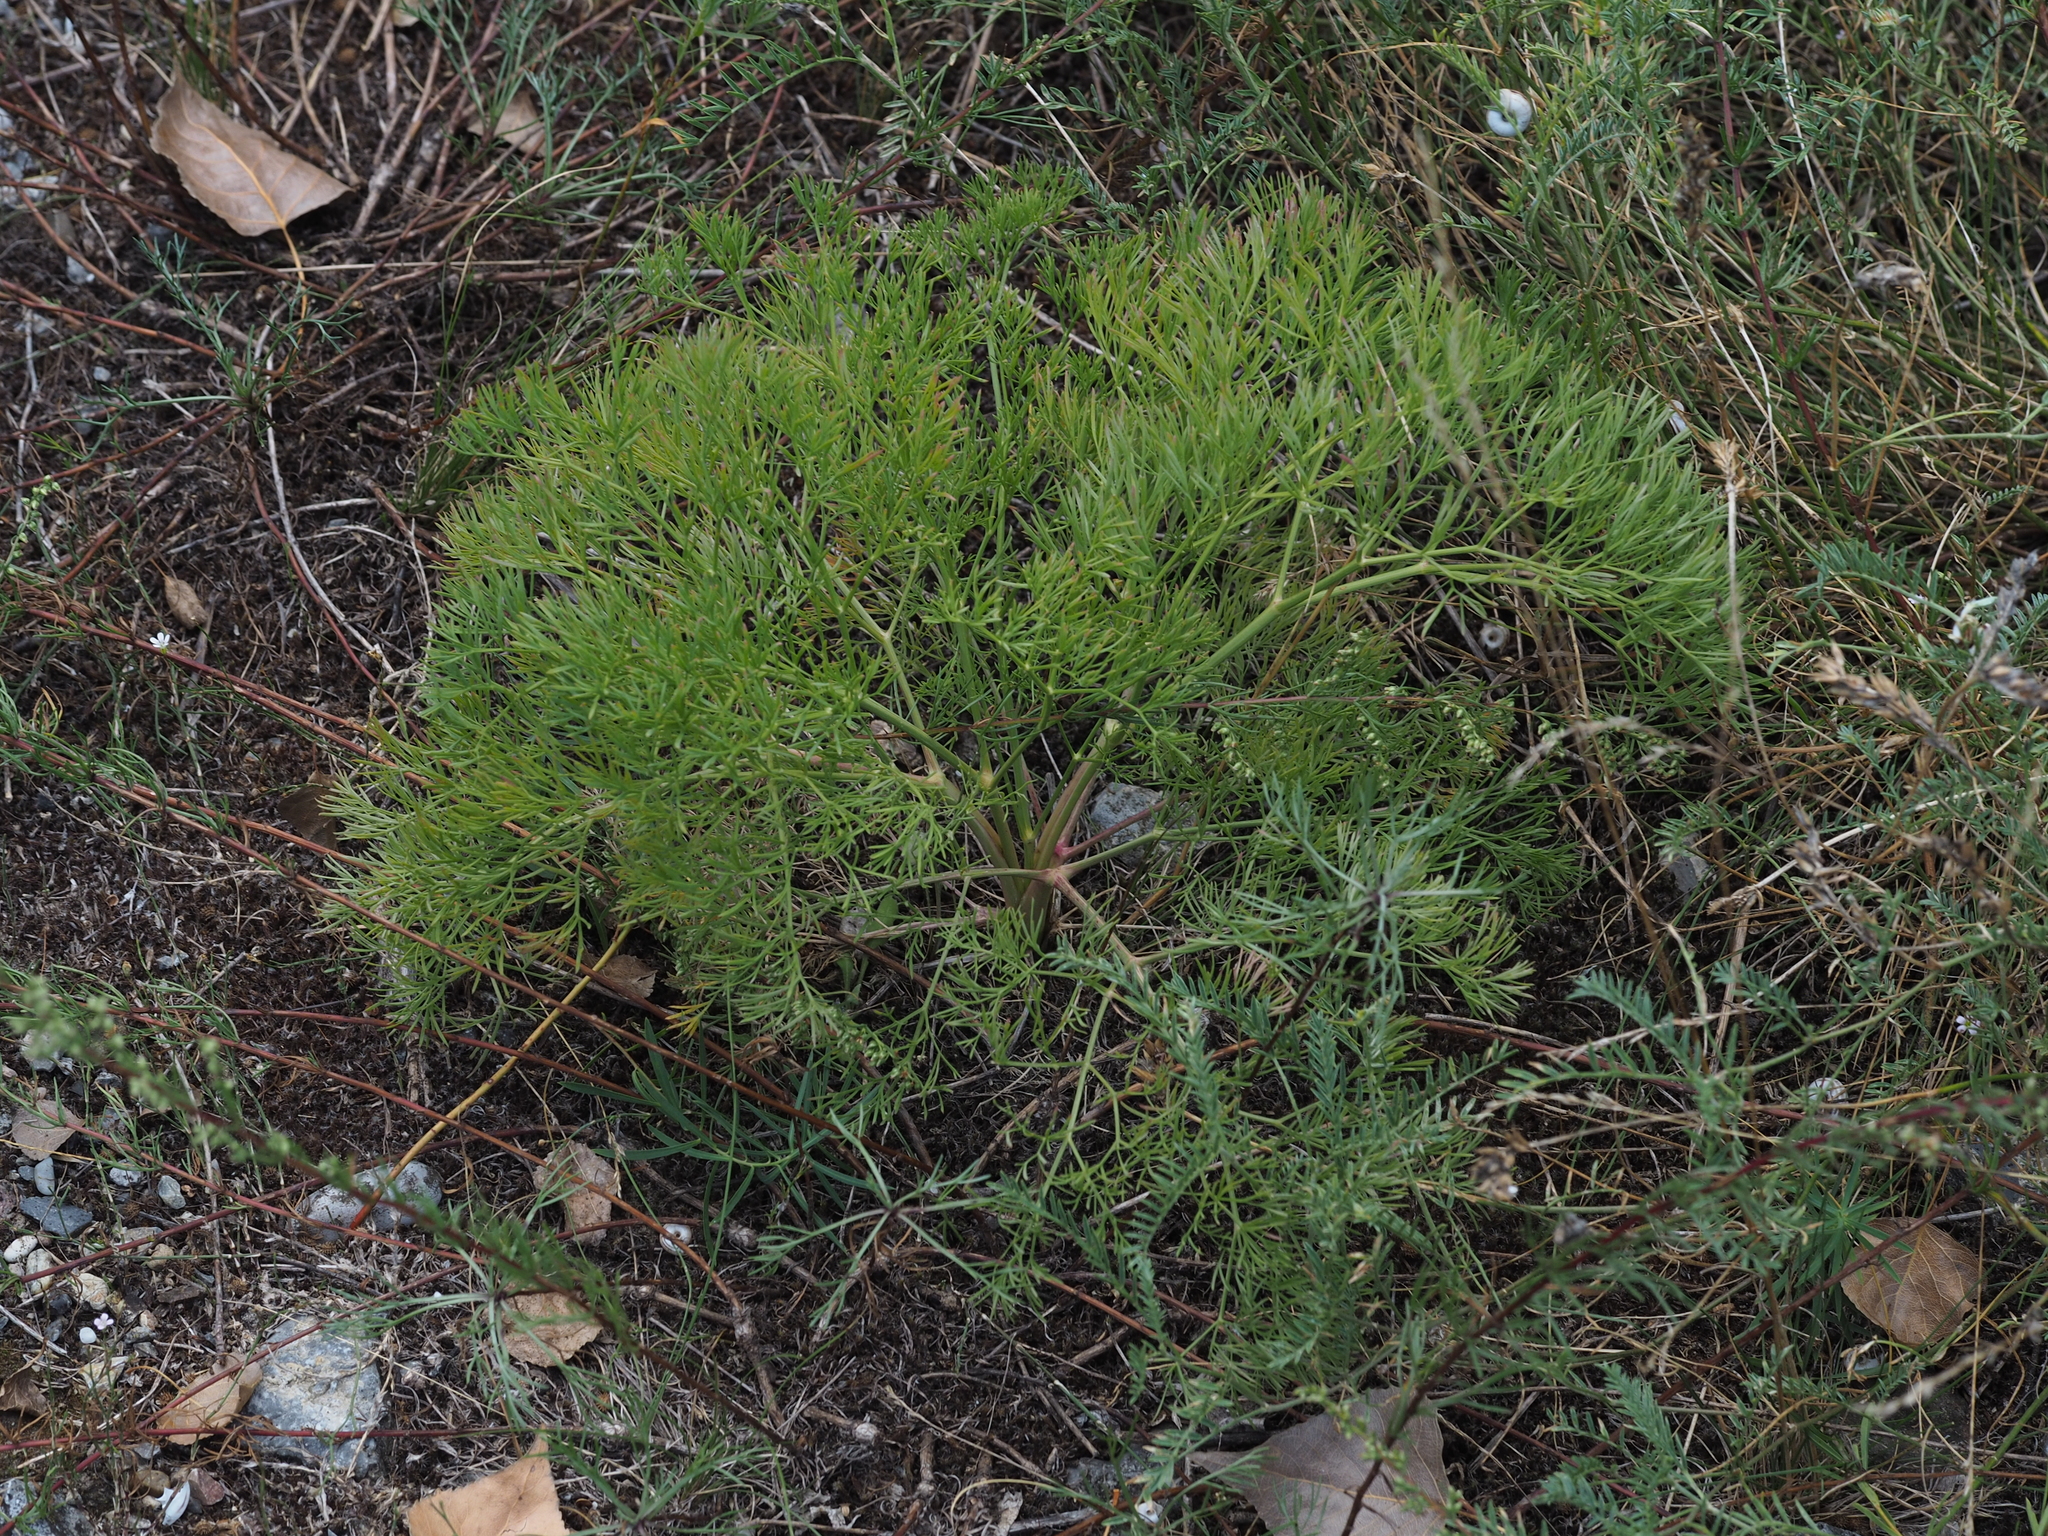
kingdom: Plantae
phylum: Tracheophyta
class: Magnoliopsida
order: Apiales
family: Apiaceae
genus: Seseli
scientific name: Seseli campestre
